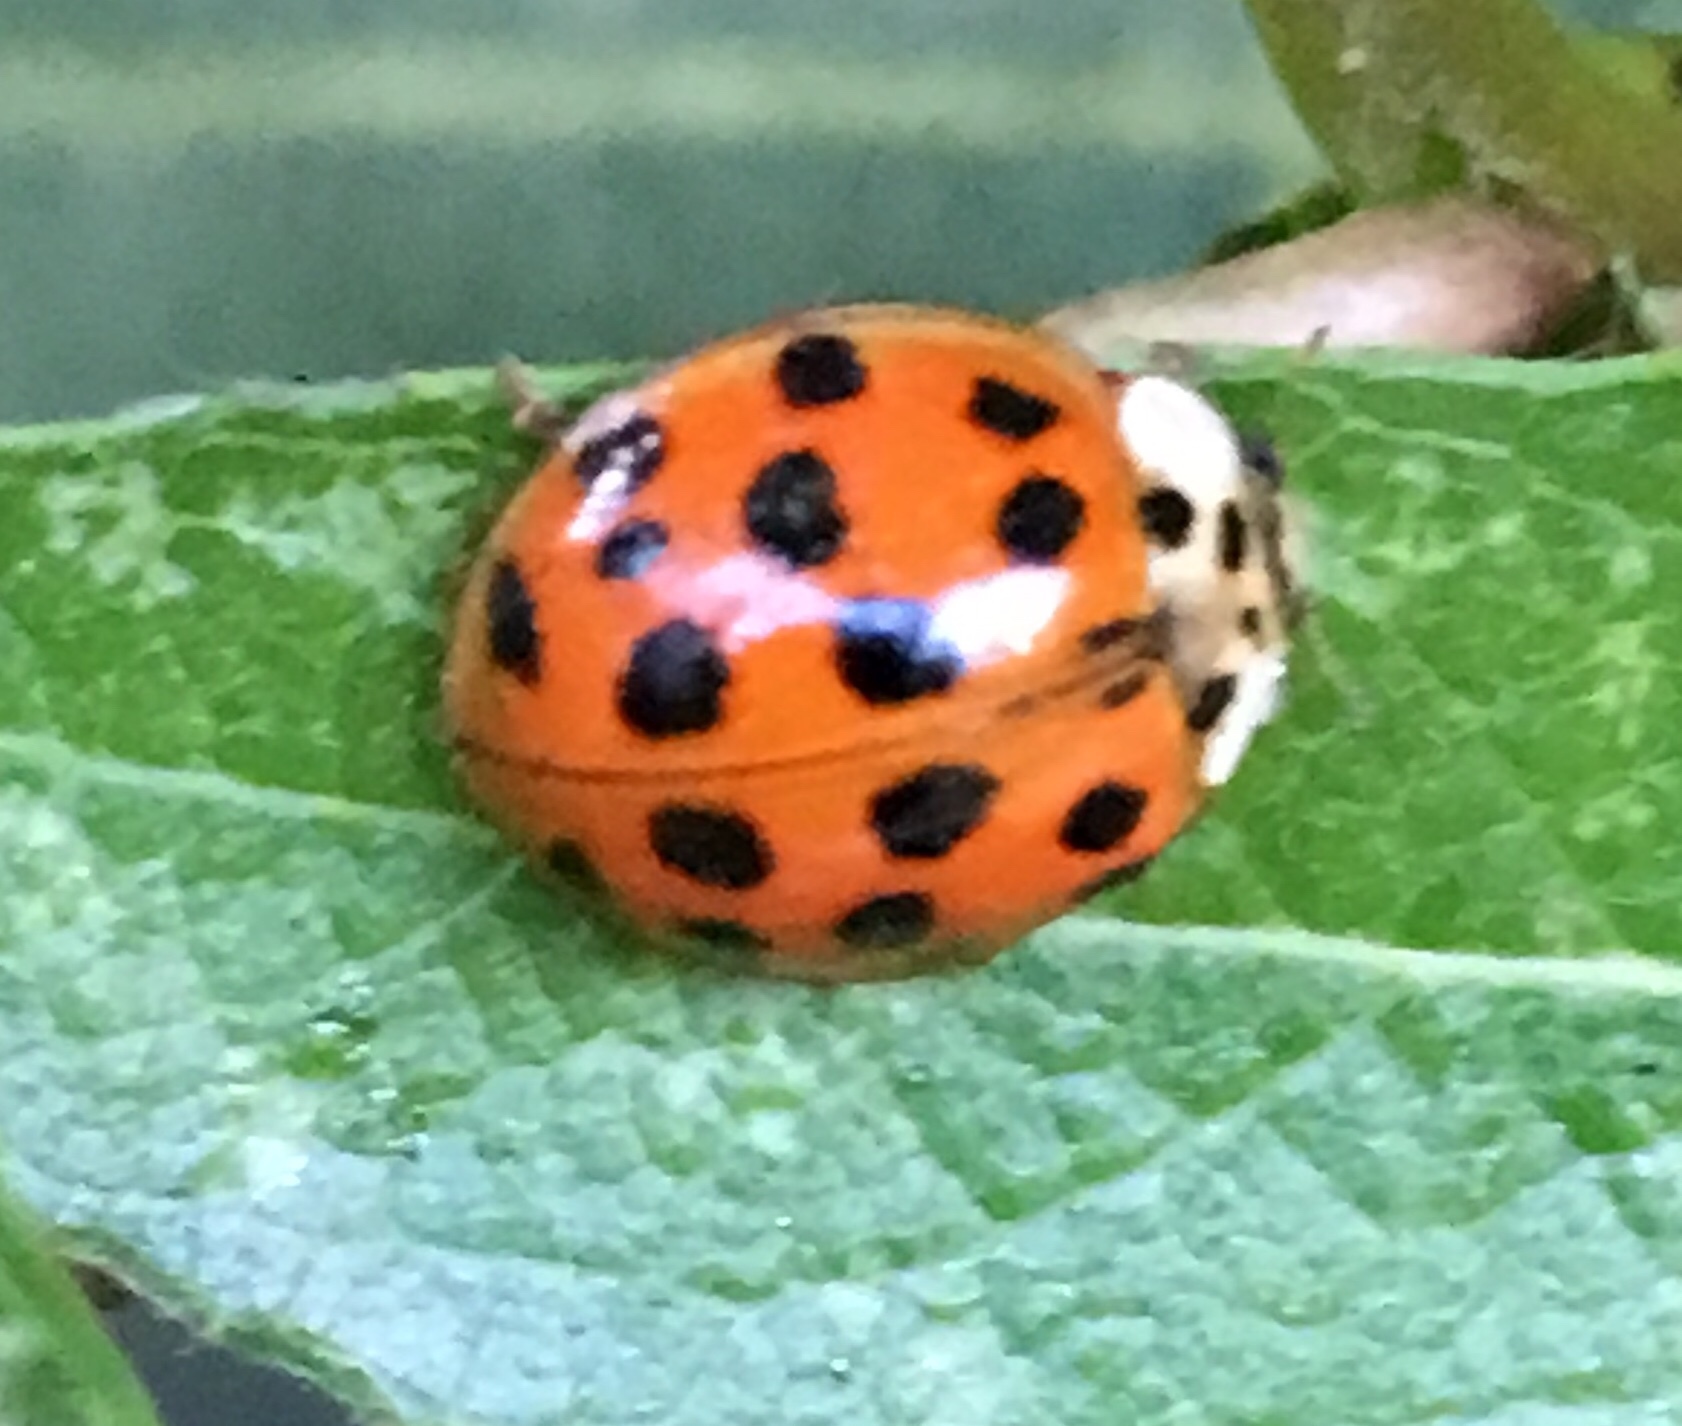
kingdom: Animalia
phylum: Arthropoda
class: Insecta
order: Coleoptera
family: Coccinellidae
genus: Harmonia
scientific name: Harmonia axyridis
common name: Harlequin ladybird
